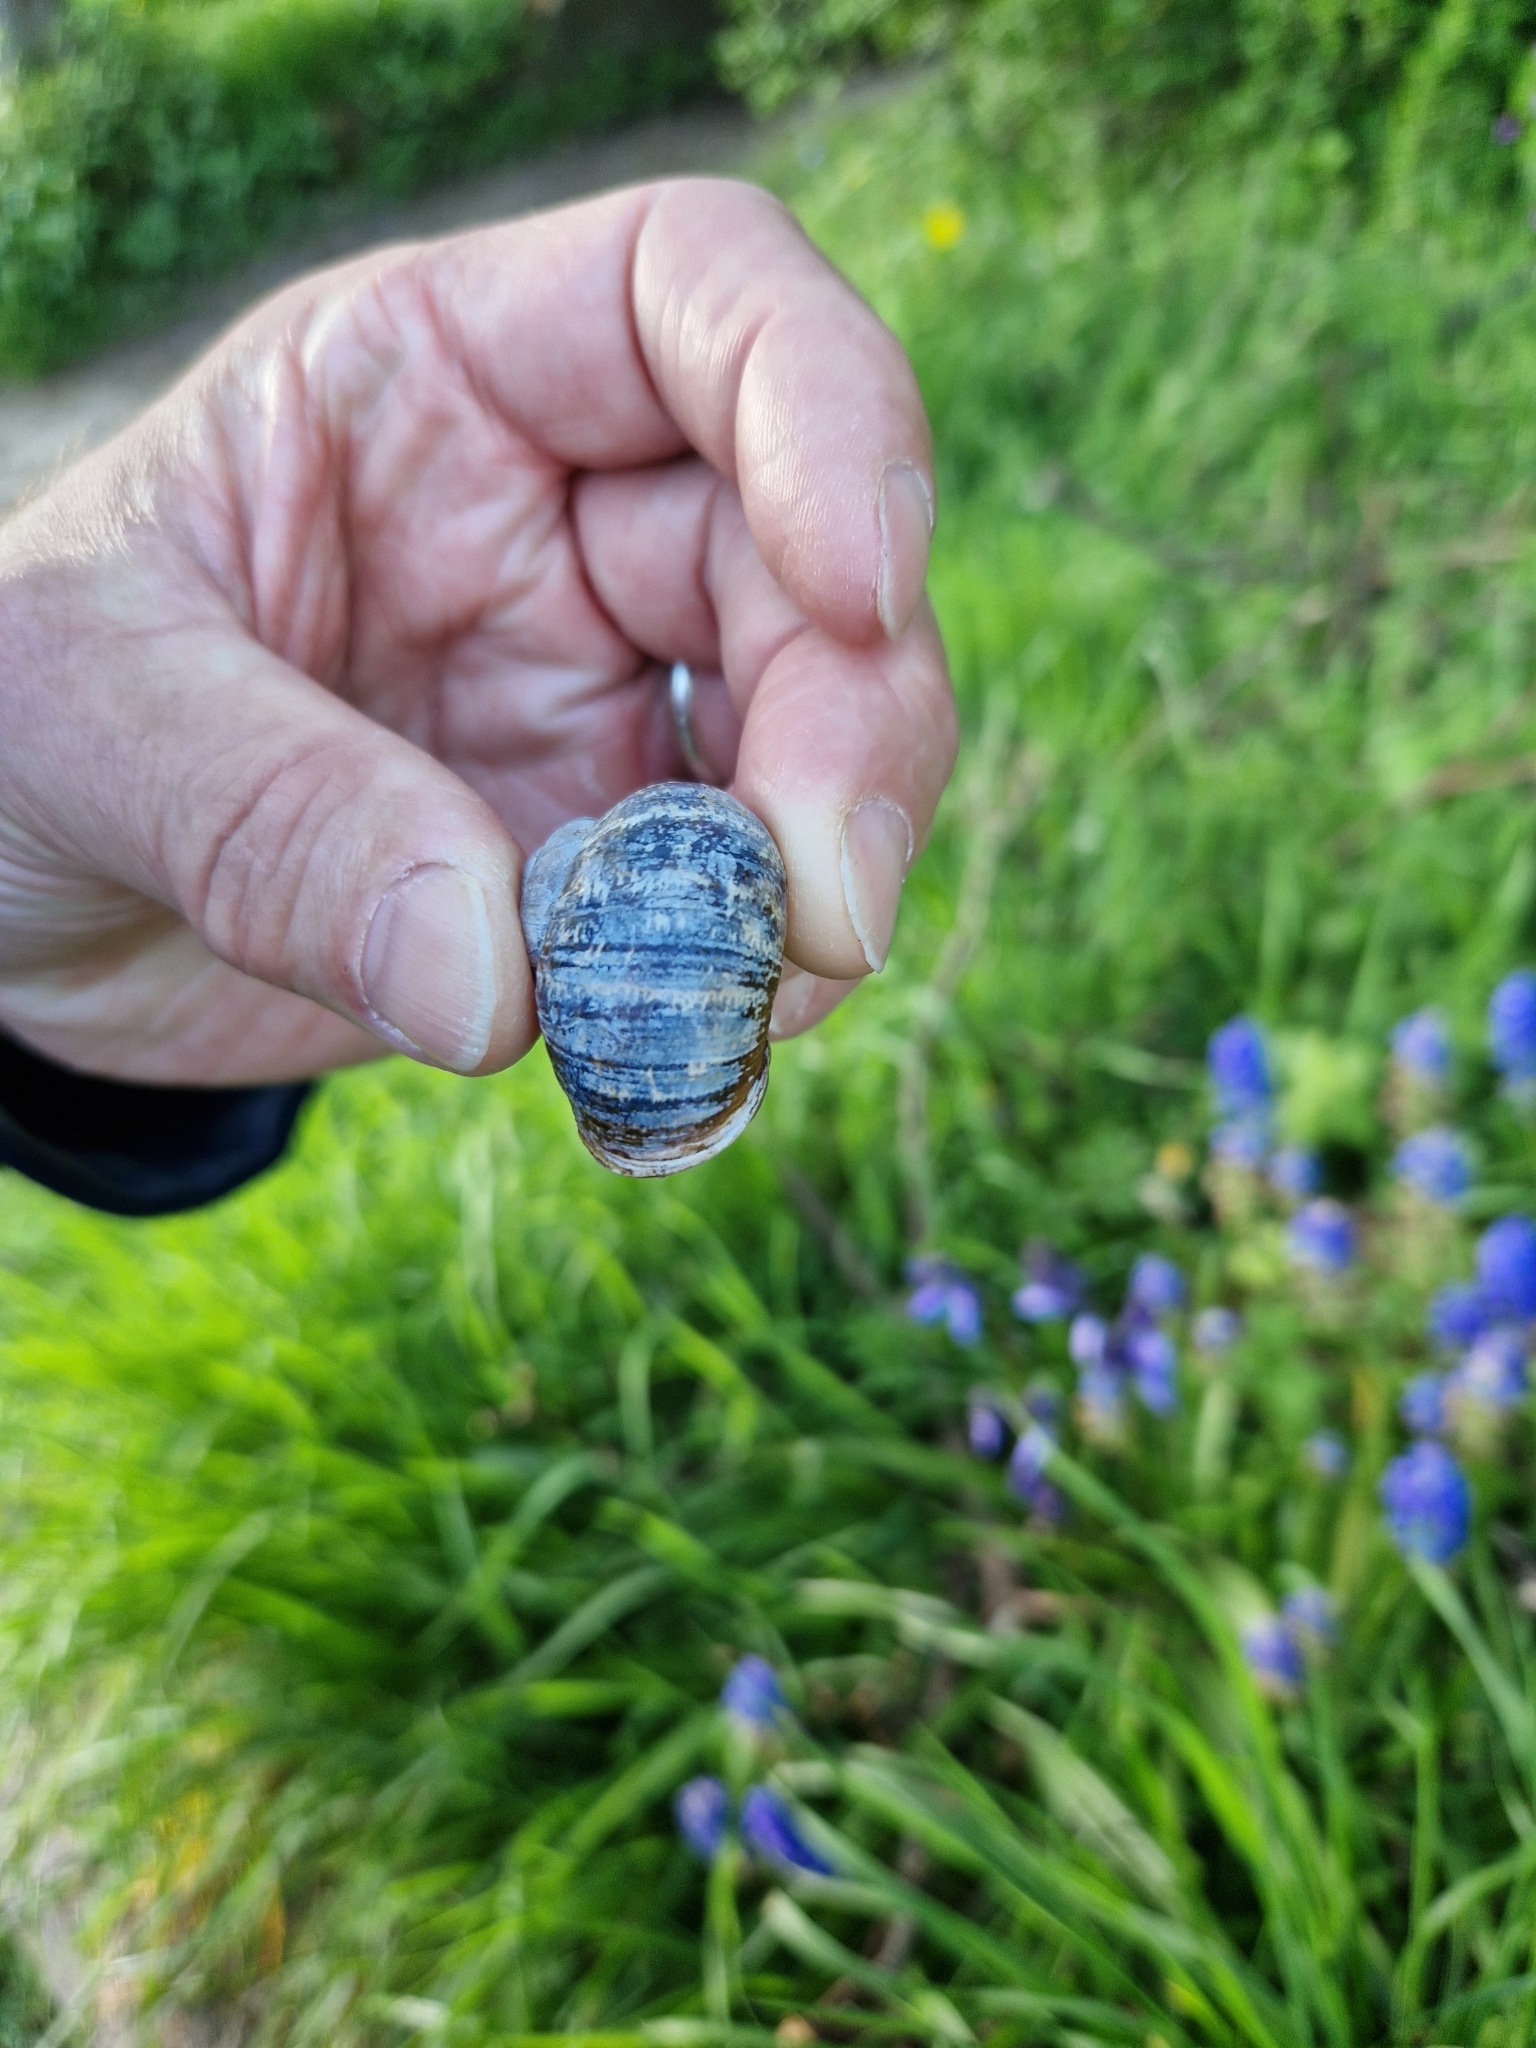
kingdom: Animalia
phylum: Mollusca
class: Gastropoda
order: Stylommatophora
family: Helicidae
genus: Cornu
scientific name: Cornu aspersum
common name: Brown garden snail
